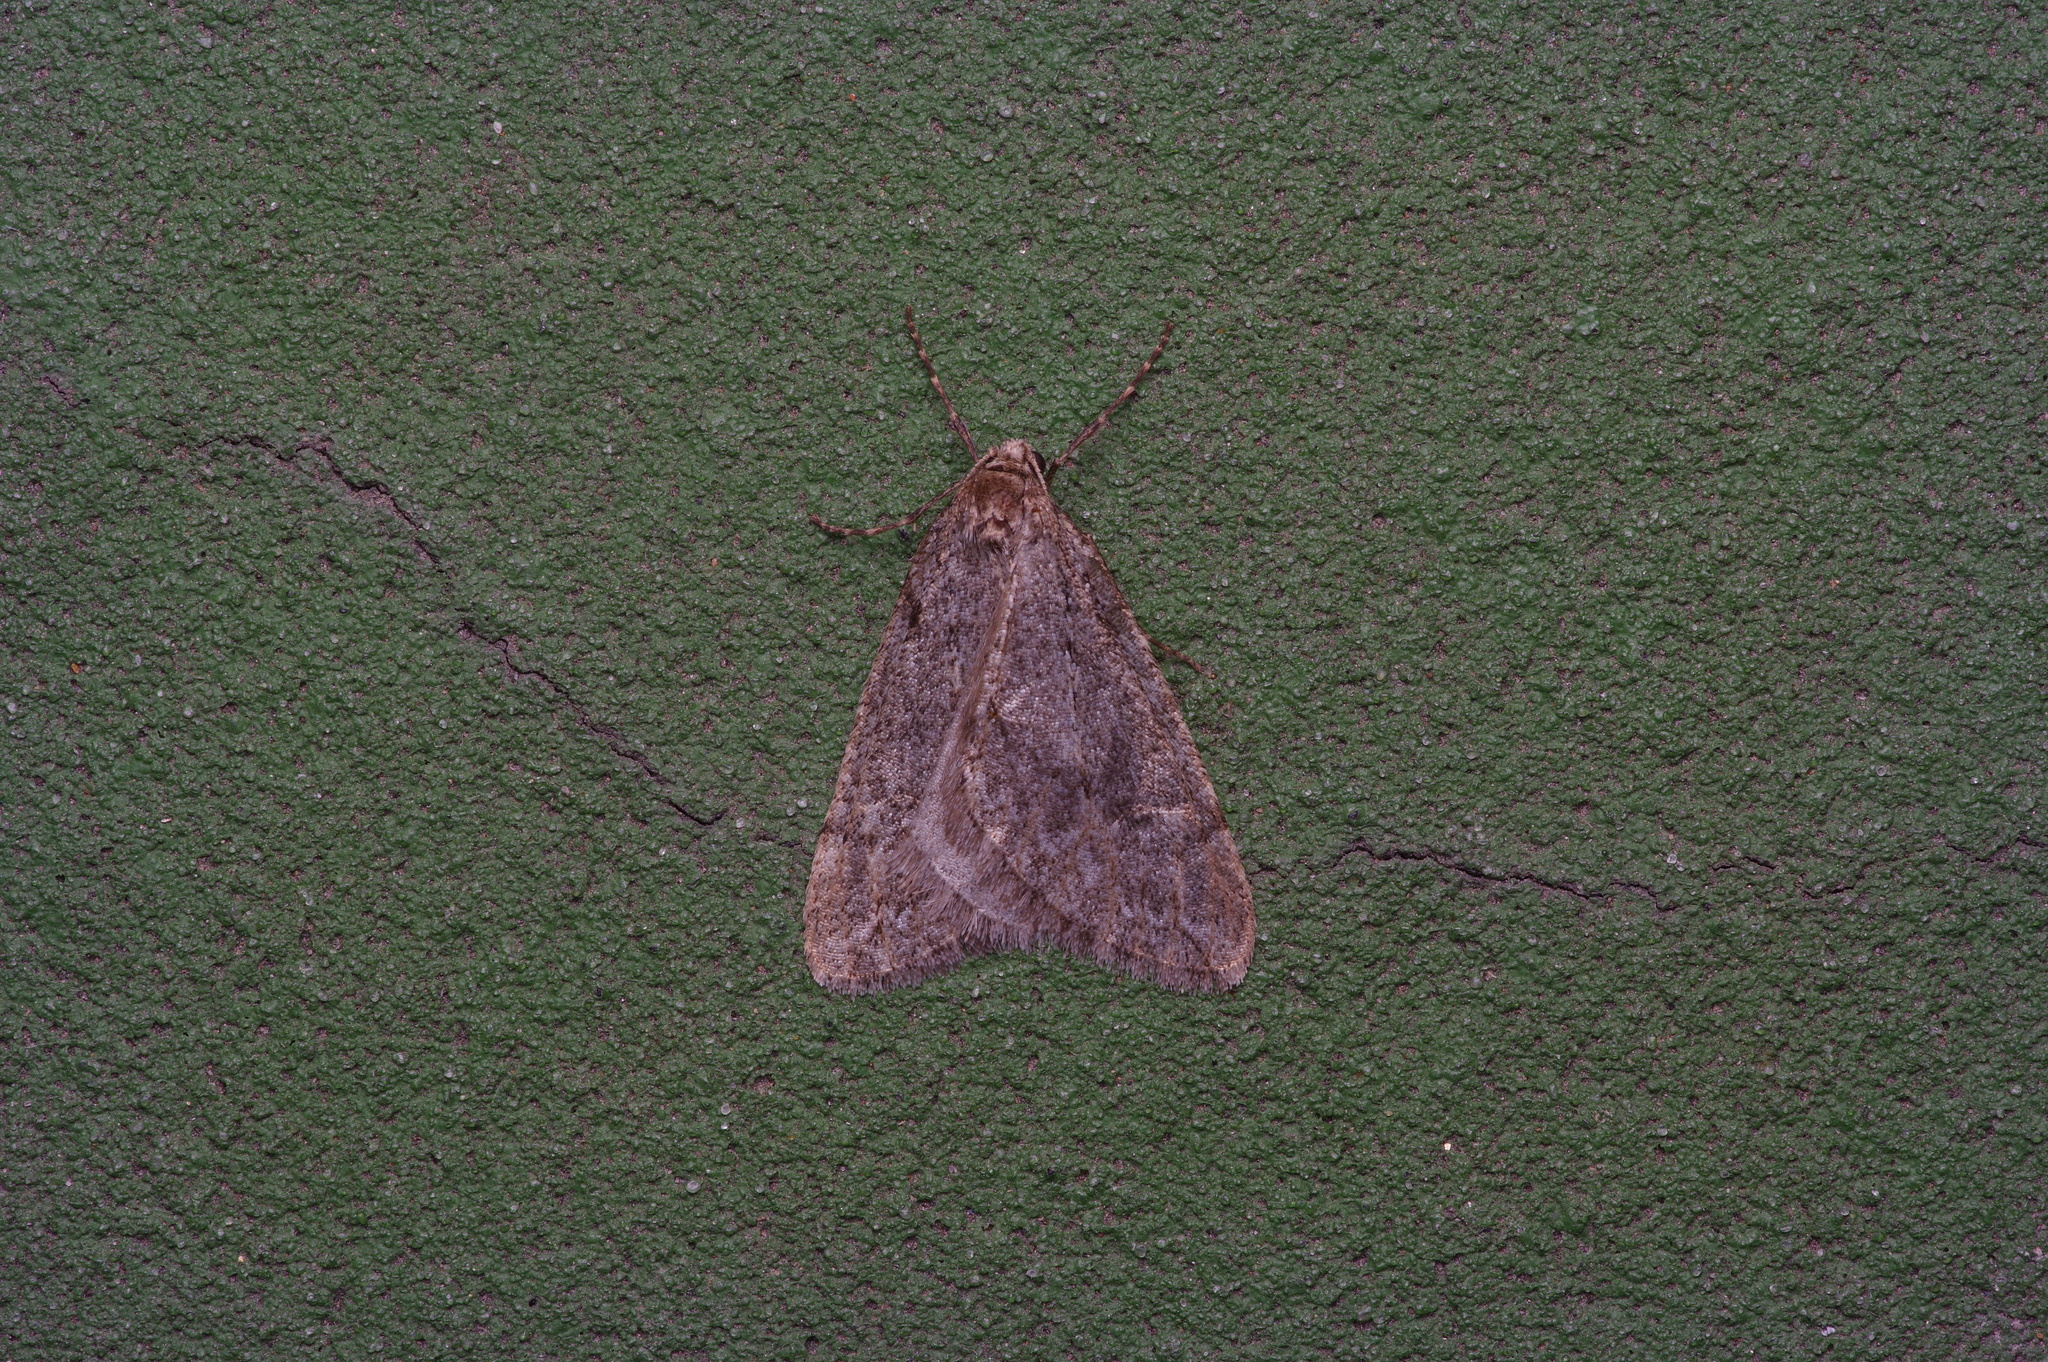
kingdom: Animalia
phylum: Arthropoda
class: Insecta
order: Lepidoptera
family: Geometridae
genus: Paleacrita
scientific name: Paleacrita vernata
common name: Spring cankerworm
